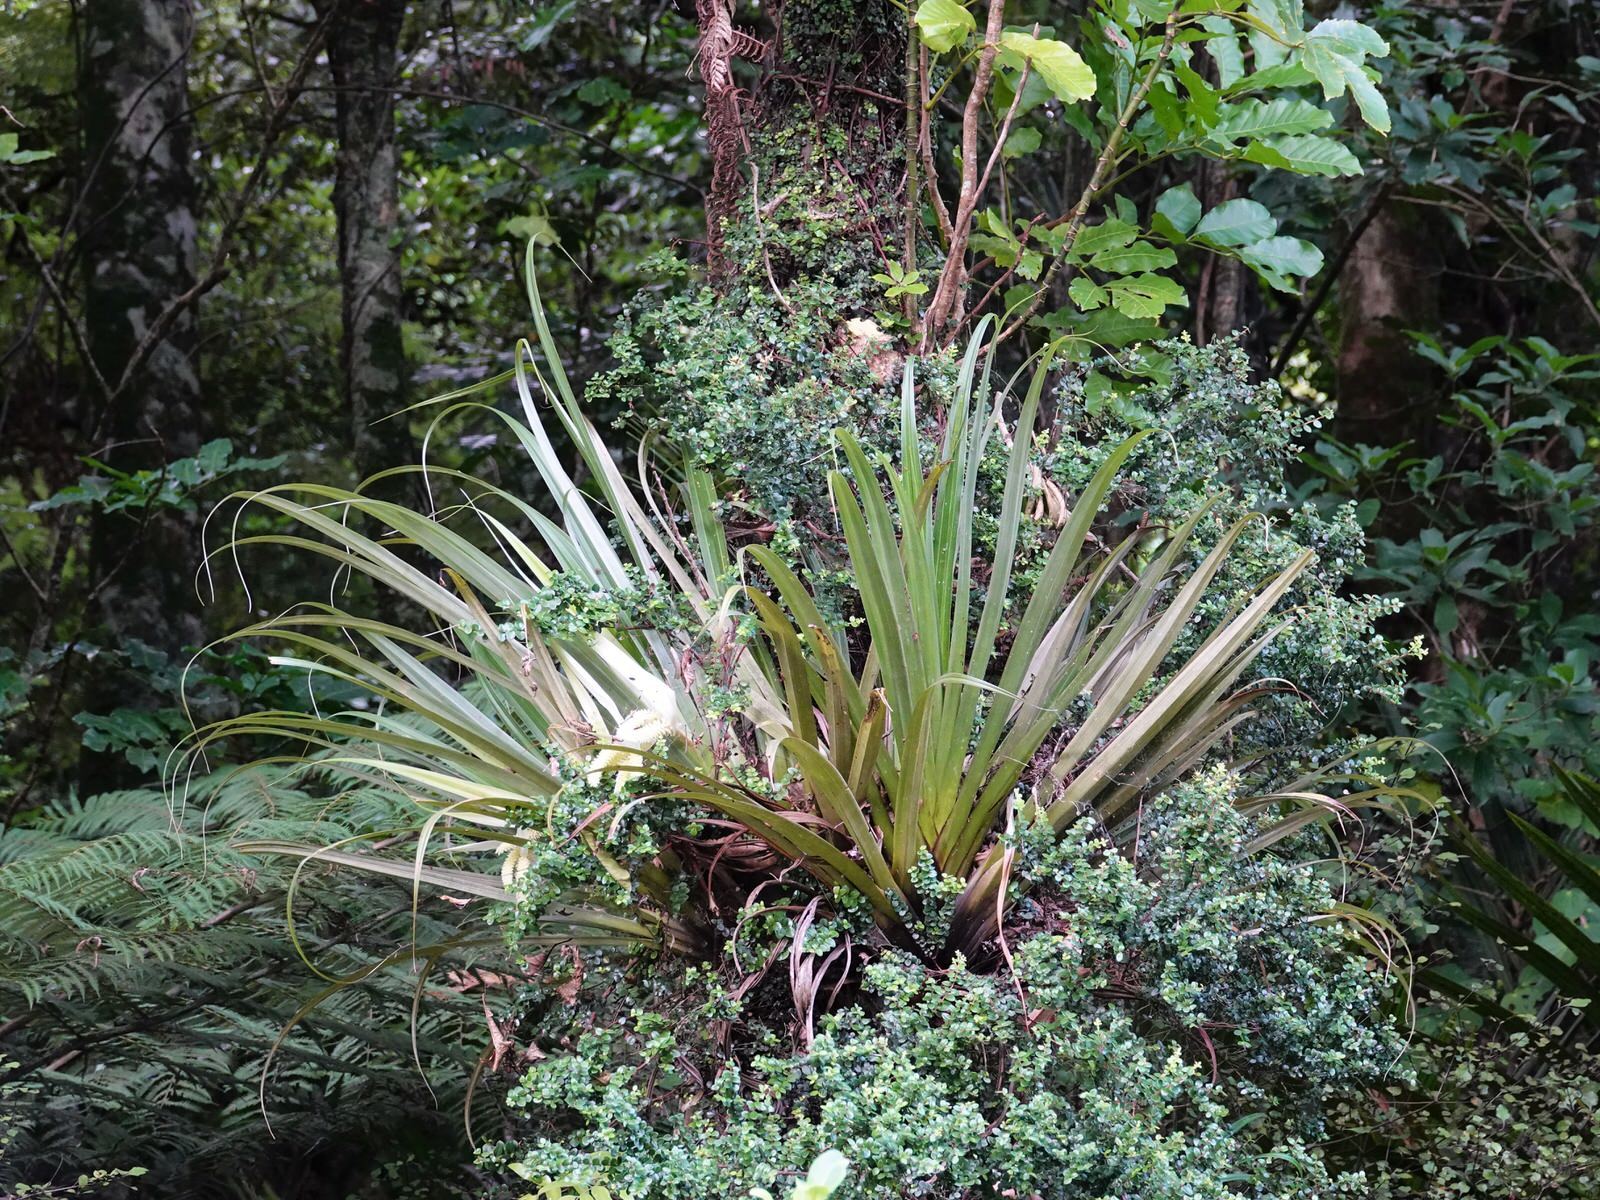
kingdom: Plantae
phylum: Tracheophyta
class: Liliopsida
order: Asparagales
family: Asteliaceae
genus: Astelia
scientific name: Astelia hastata
